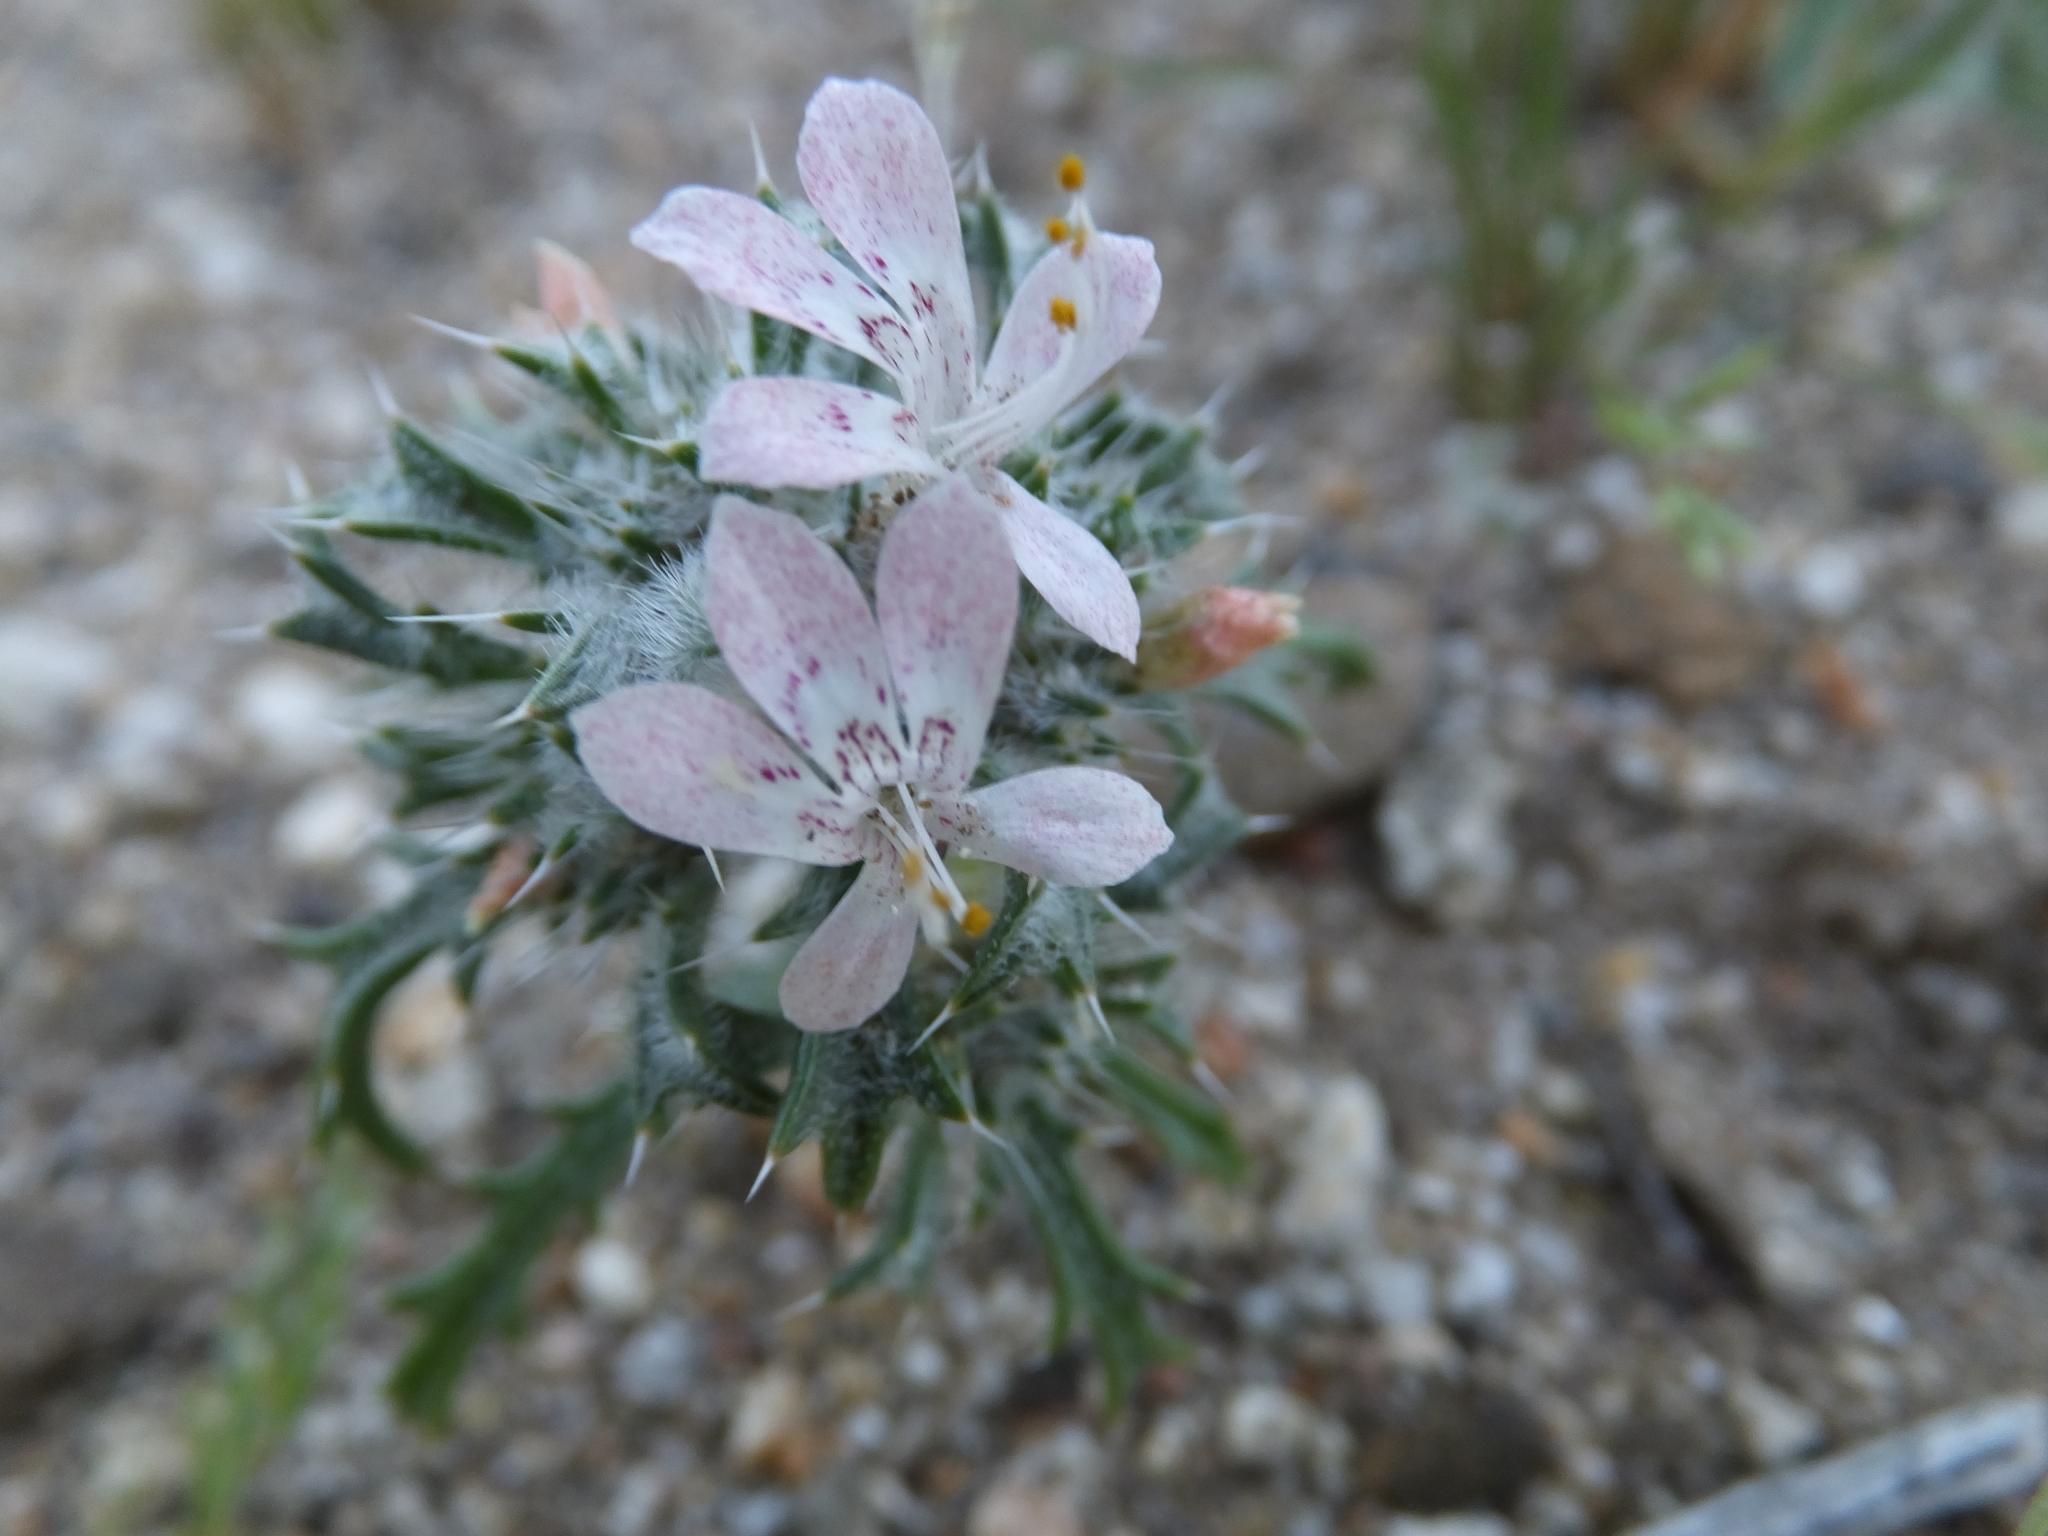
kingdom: Plantae
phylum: Tracheophyta
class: Magnoliopsida
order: Ericales
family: Polemoniaceae
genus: Loeseliastrum
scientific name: Loeseliastrum matthewsii
